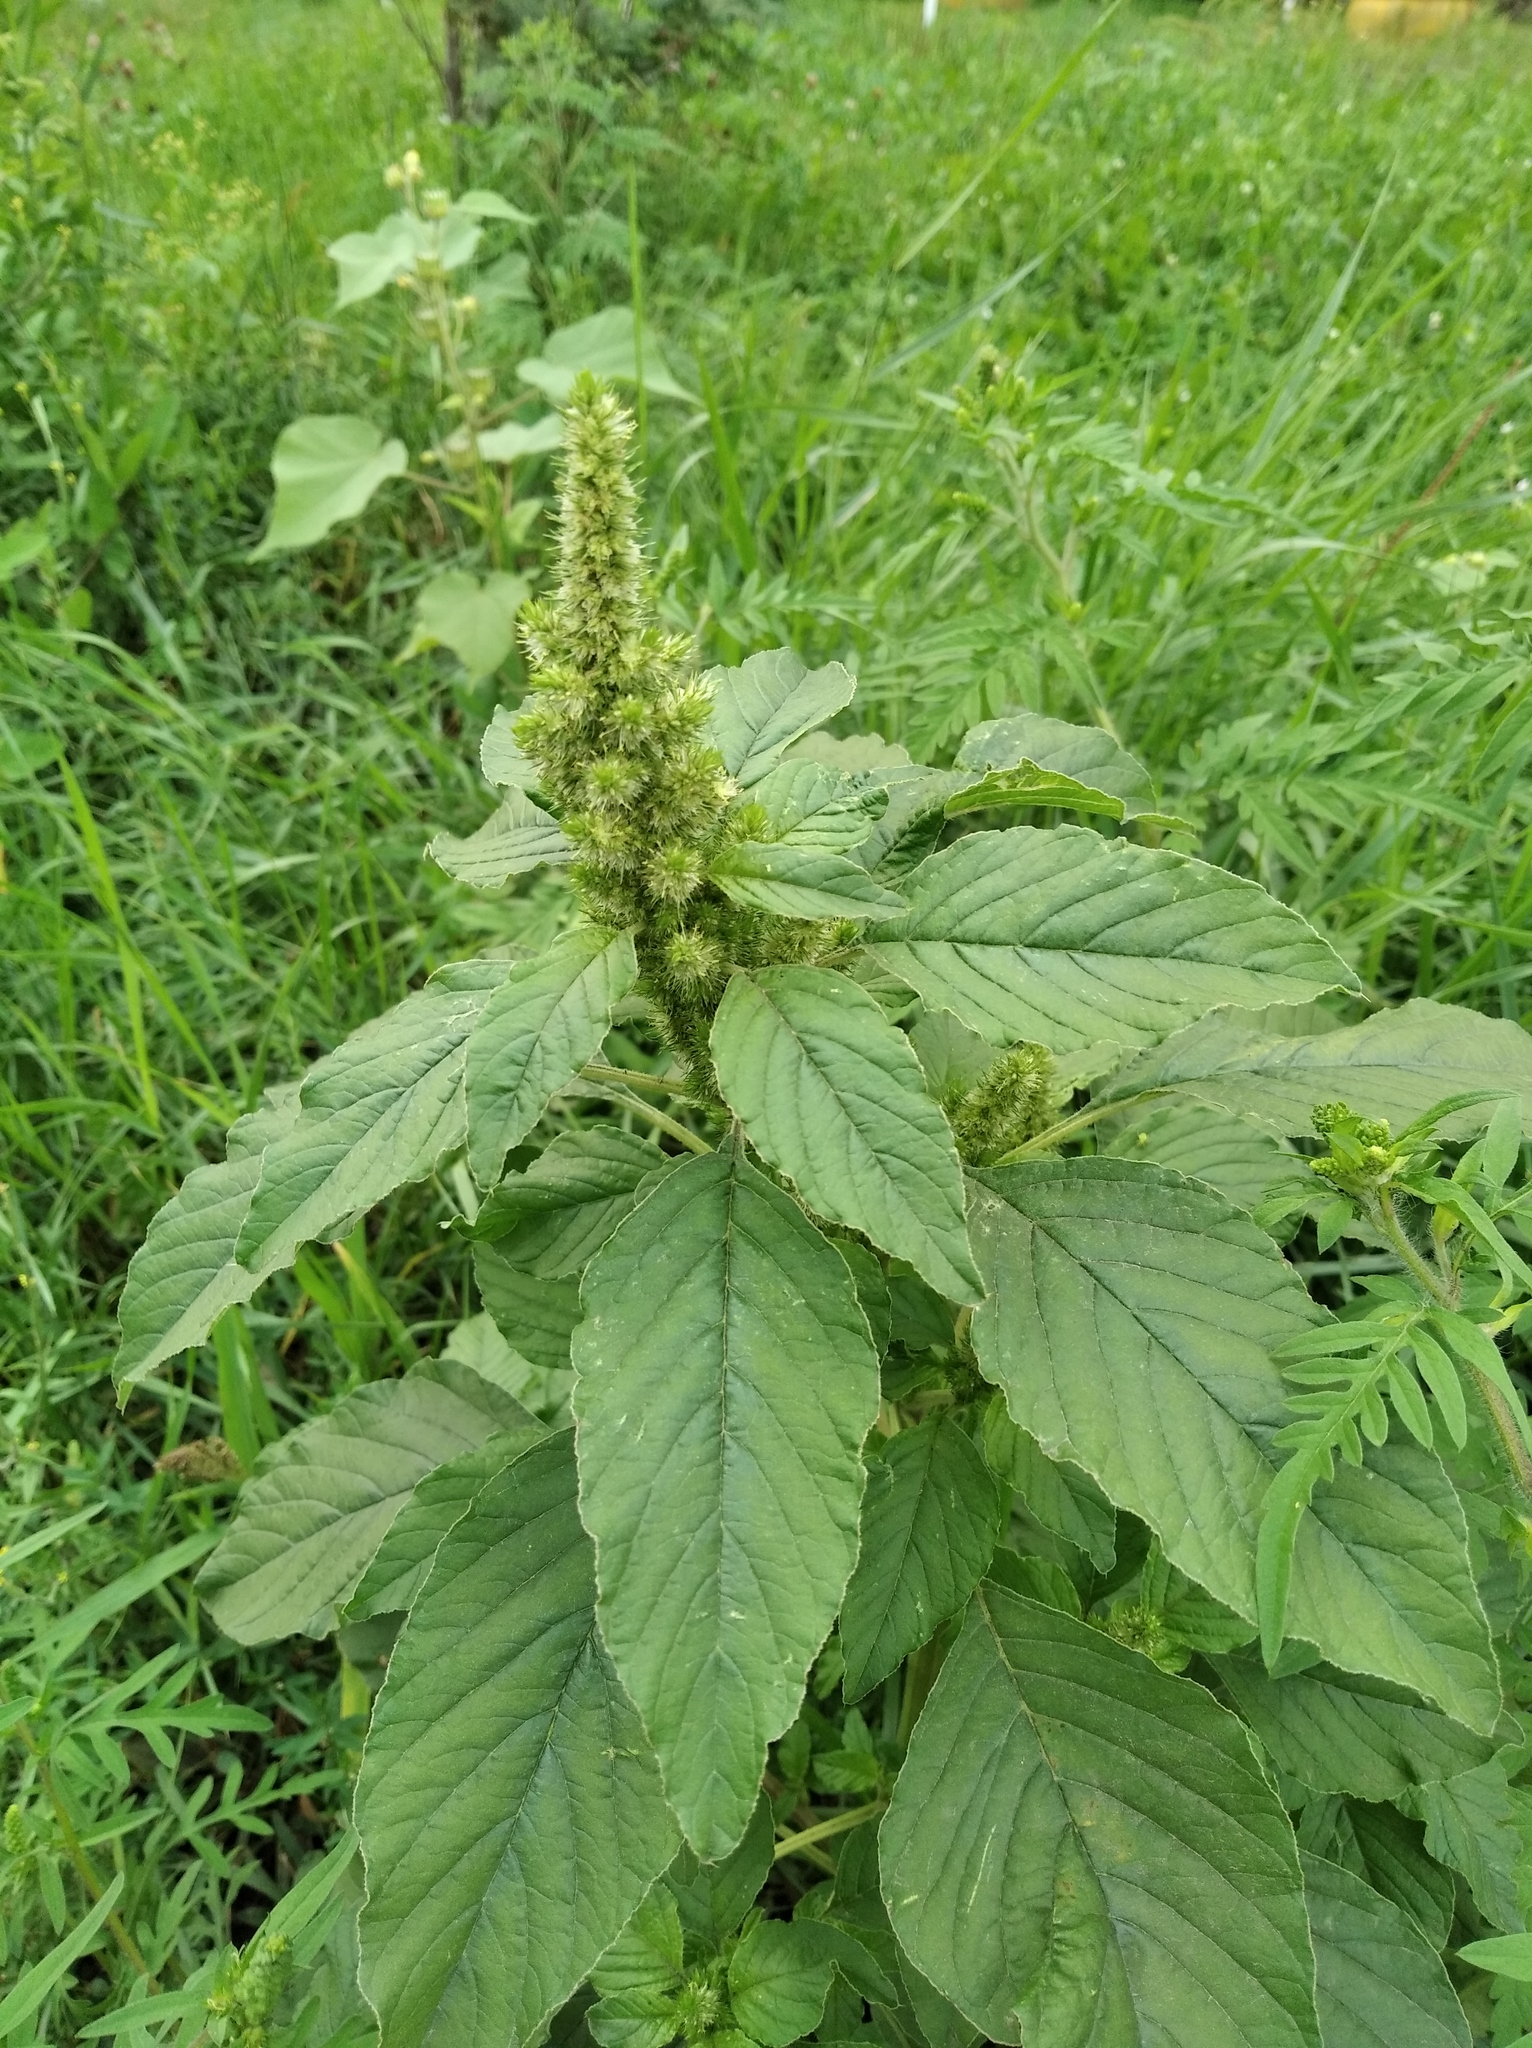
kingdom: Plantae
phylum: Tracheophyta
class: Magnoliopsida
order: Caryophyllales
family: Amaranthaceae
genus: Amaranthus
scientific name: Amaranthus retroflexus
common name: Redroot amaranth
